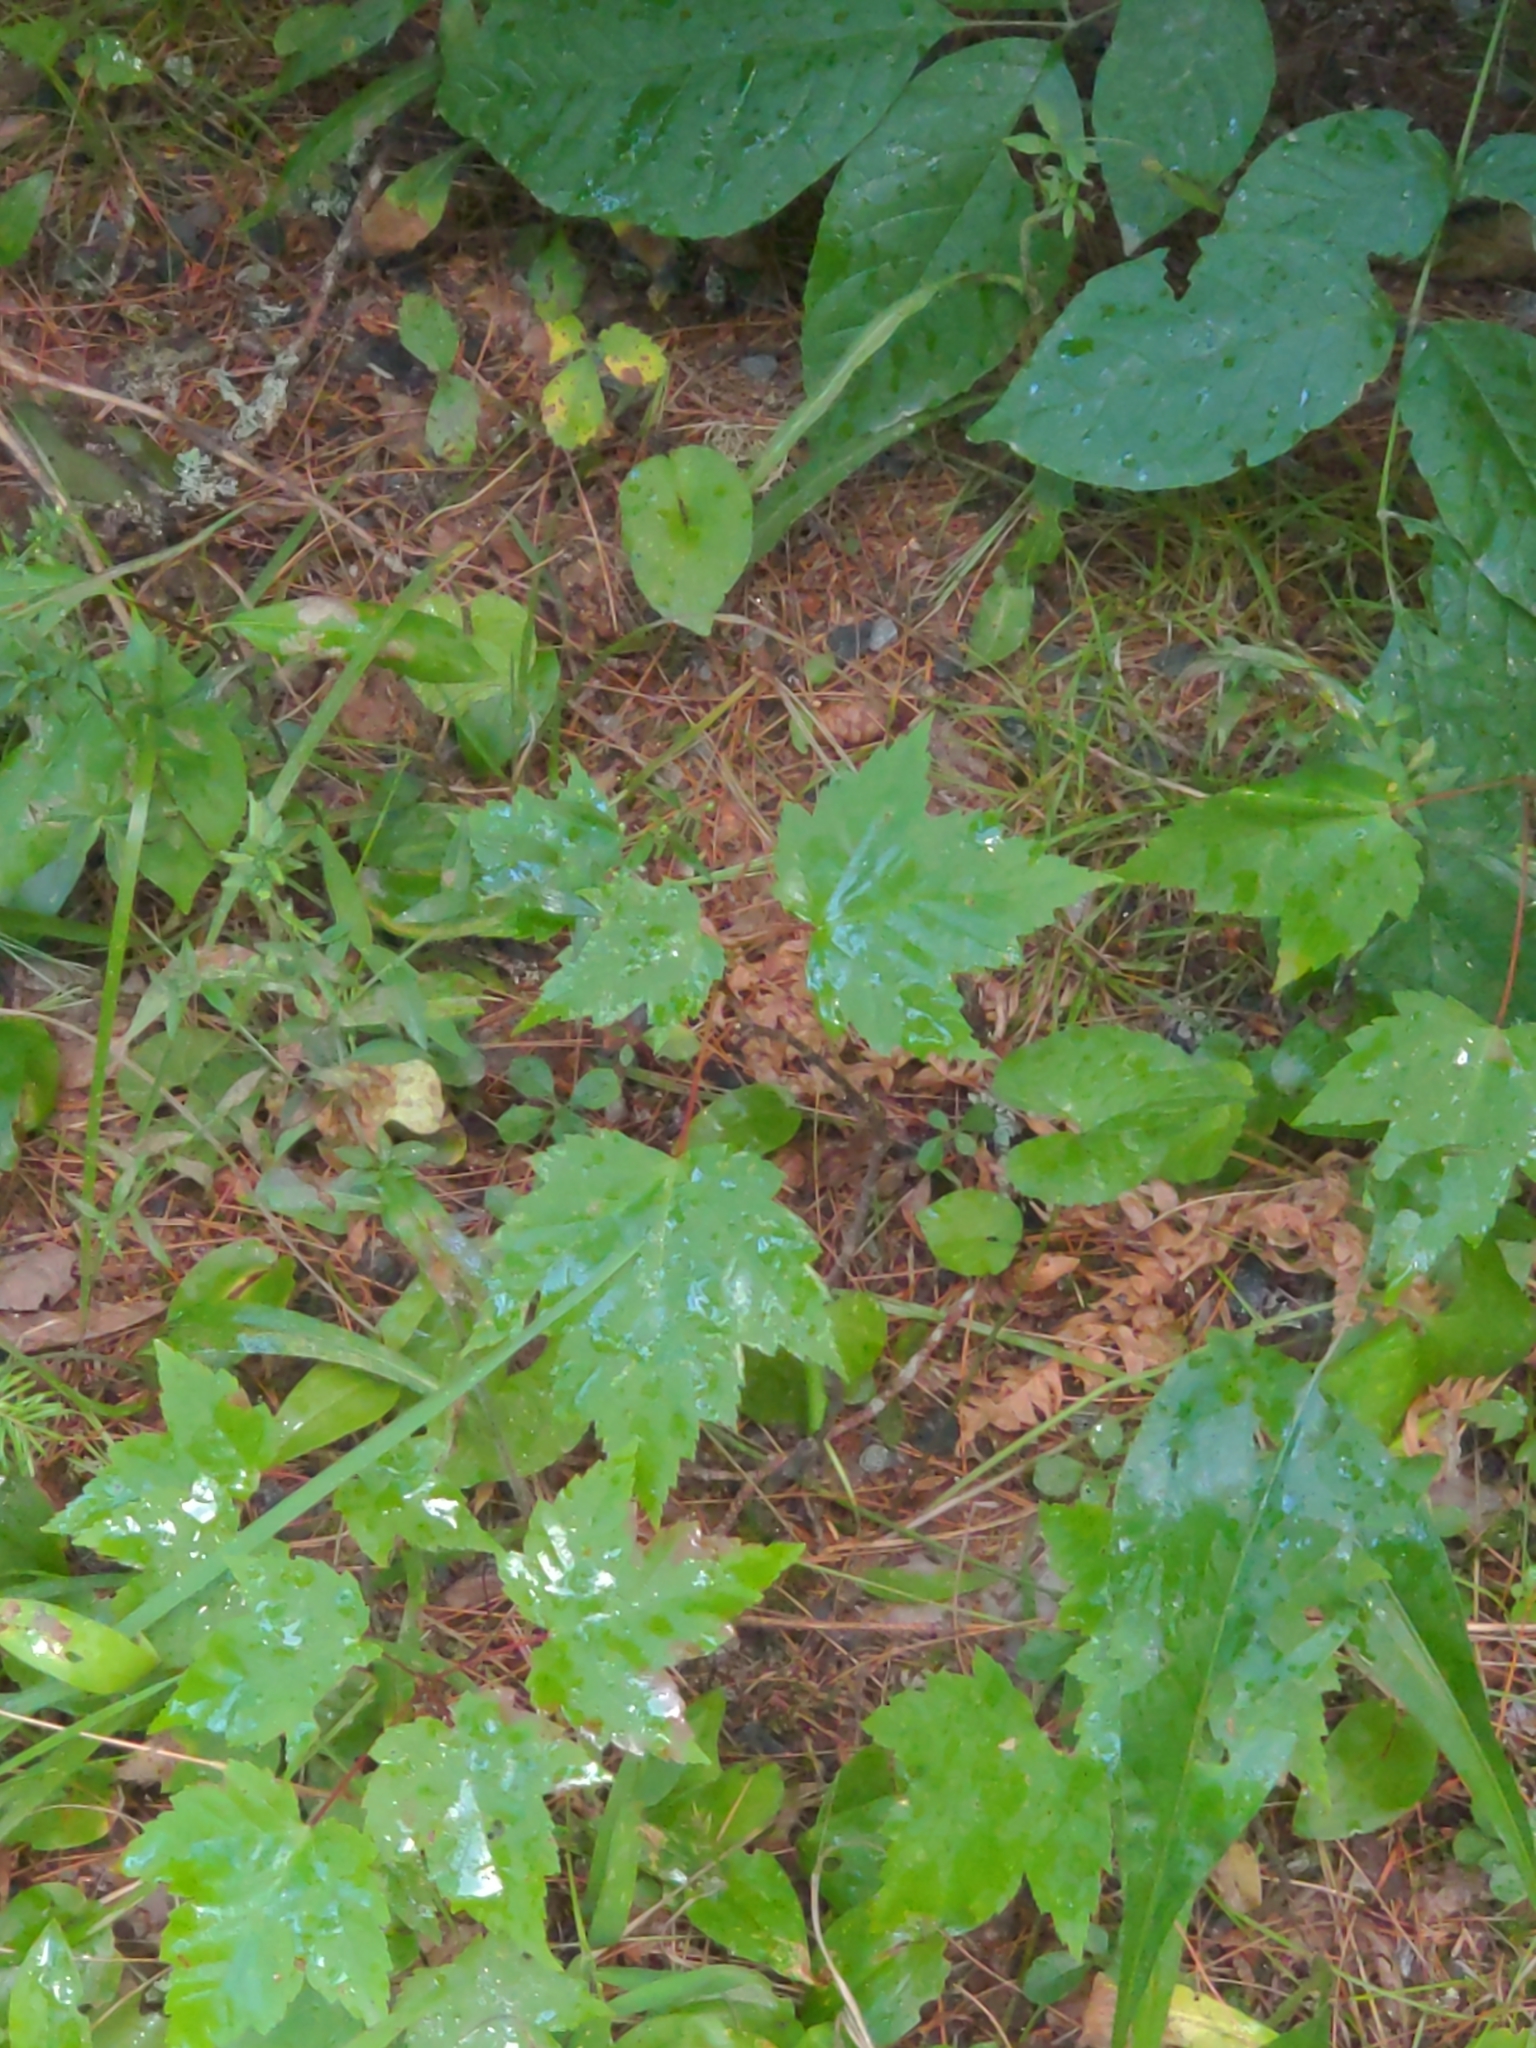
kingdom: Plantae
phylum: Tracheophyta
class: Magnoliopsida
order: Sapindales
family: Sapindaceae
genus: Acer
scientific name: Acer rubrum
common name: Red maple
